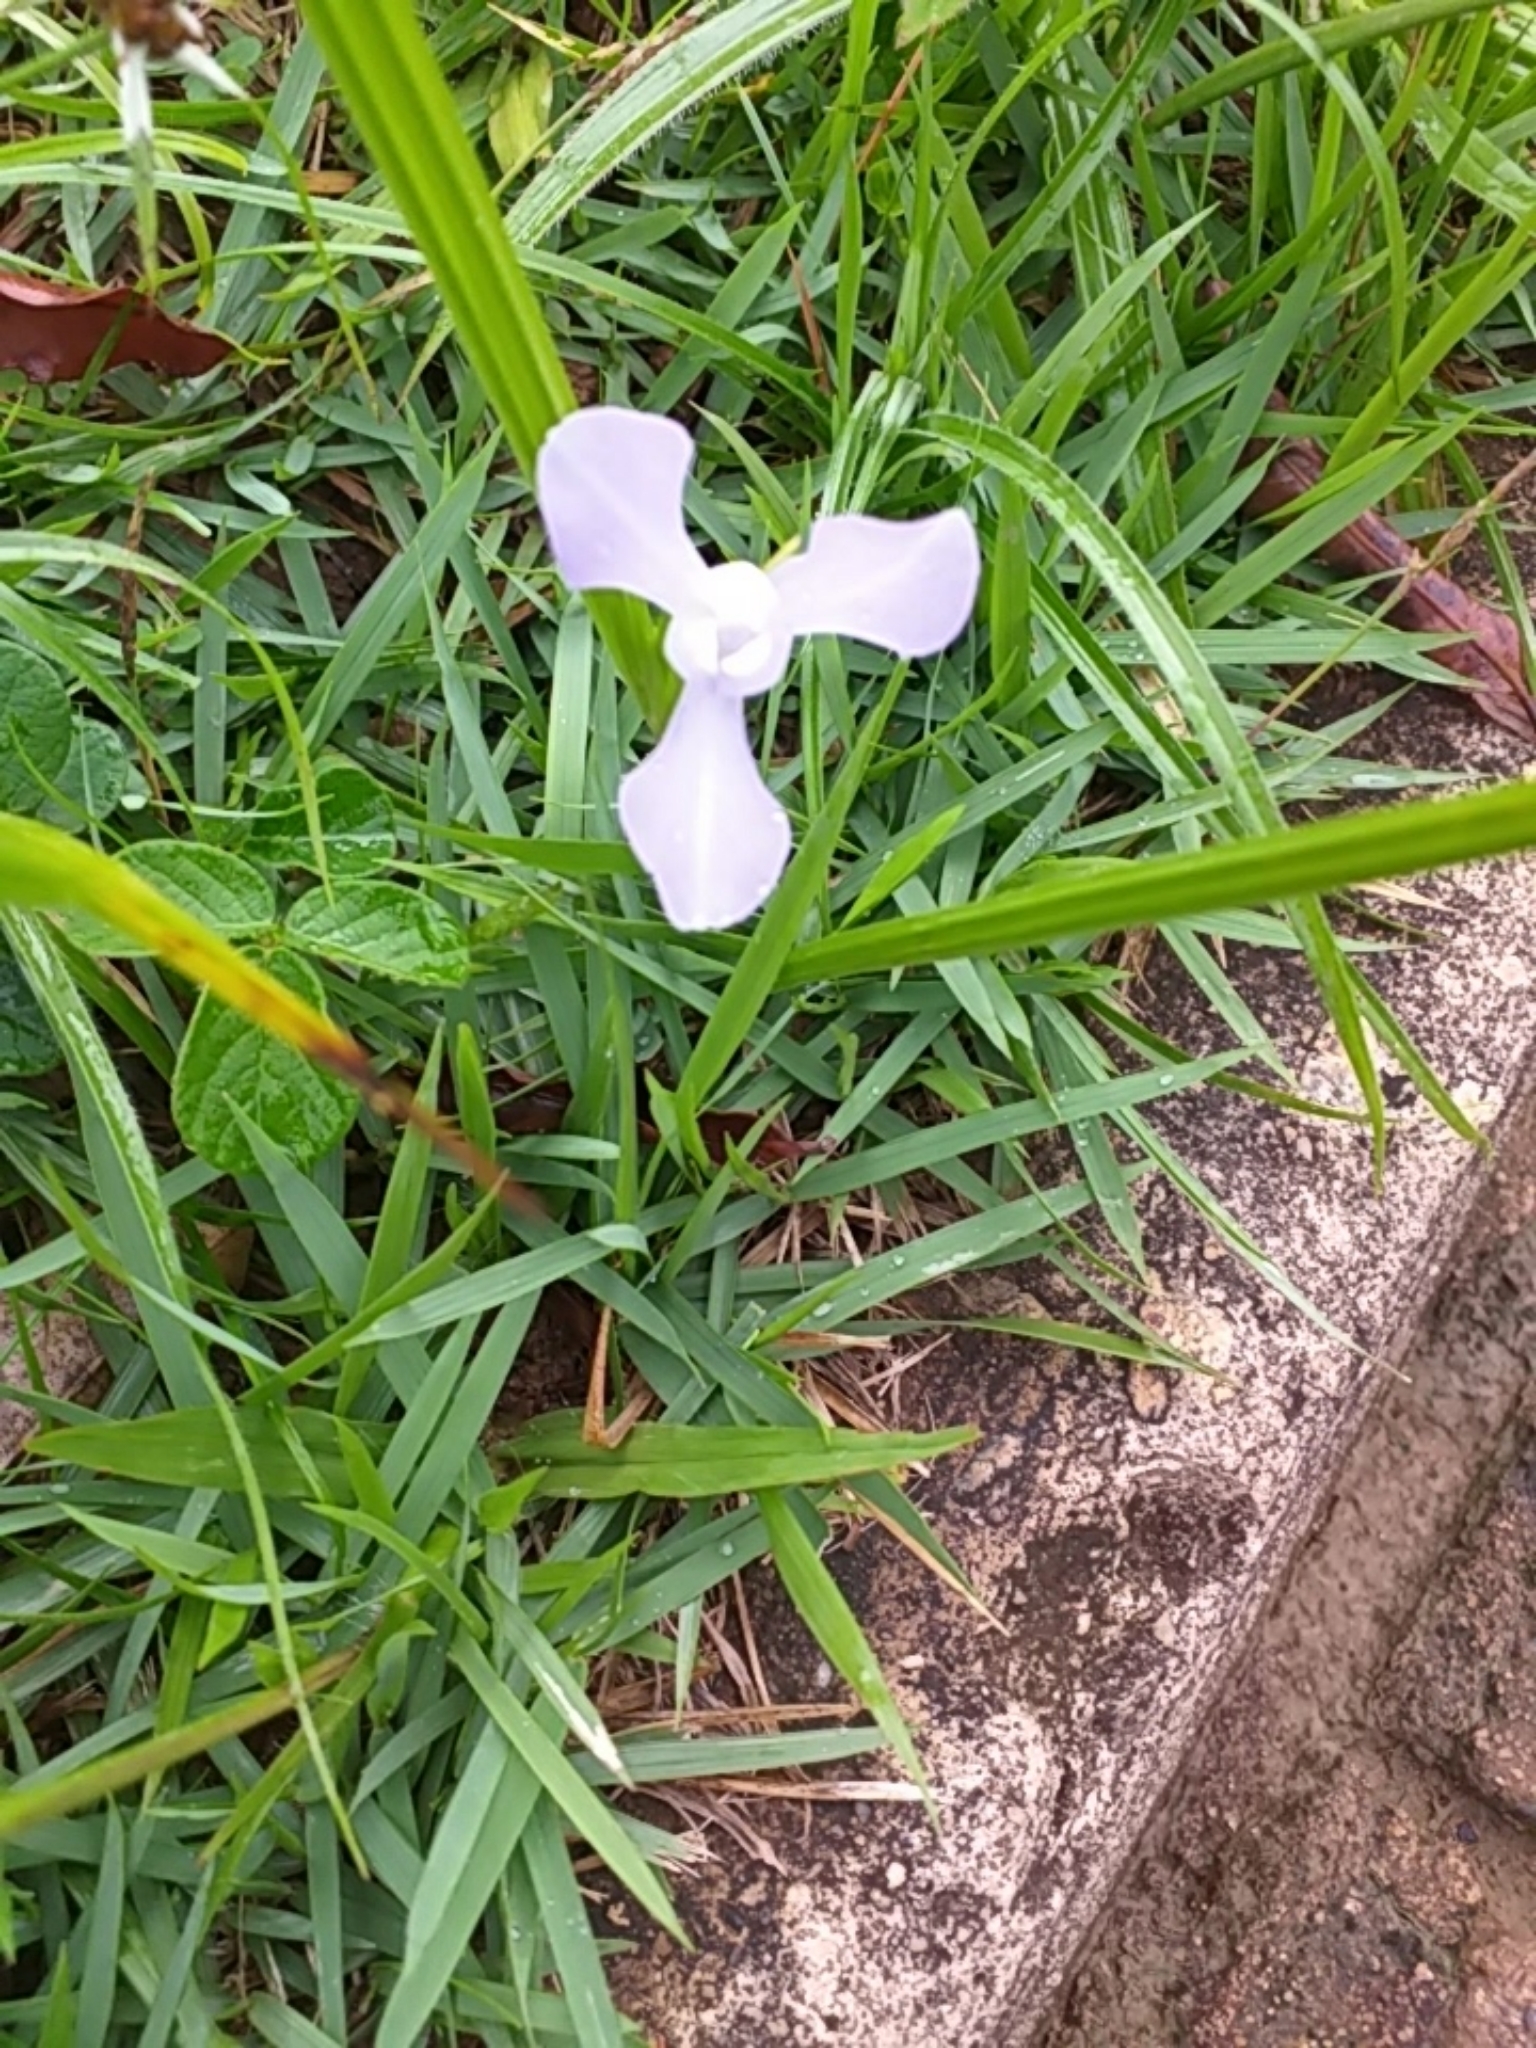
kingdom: Plantae
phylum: Tracheophyta
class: Liliopsida
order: Asparagales
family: Iridaceae
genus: Cipura
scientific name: Cipura paludosa
